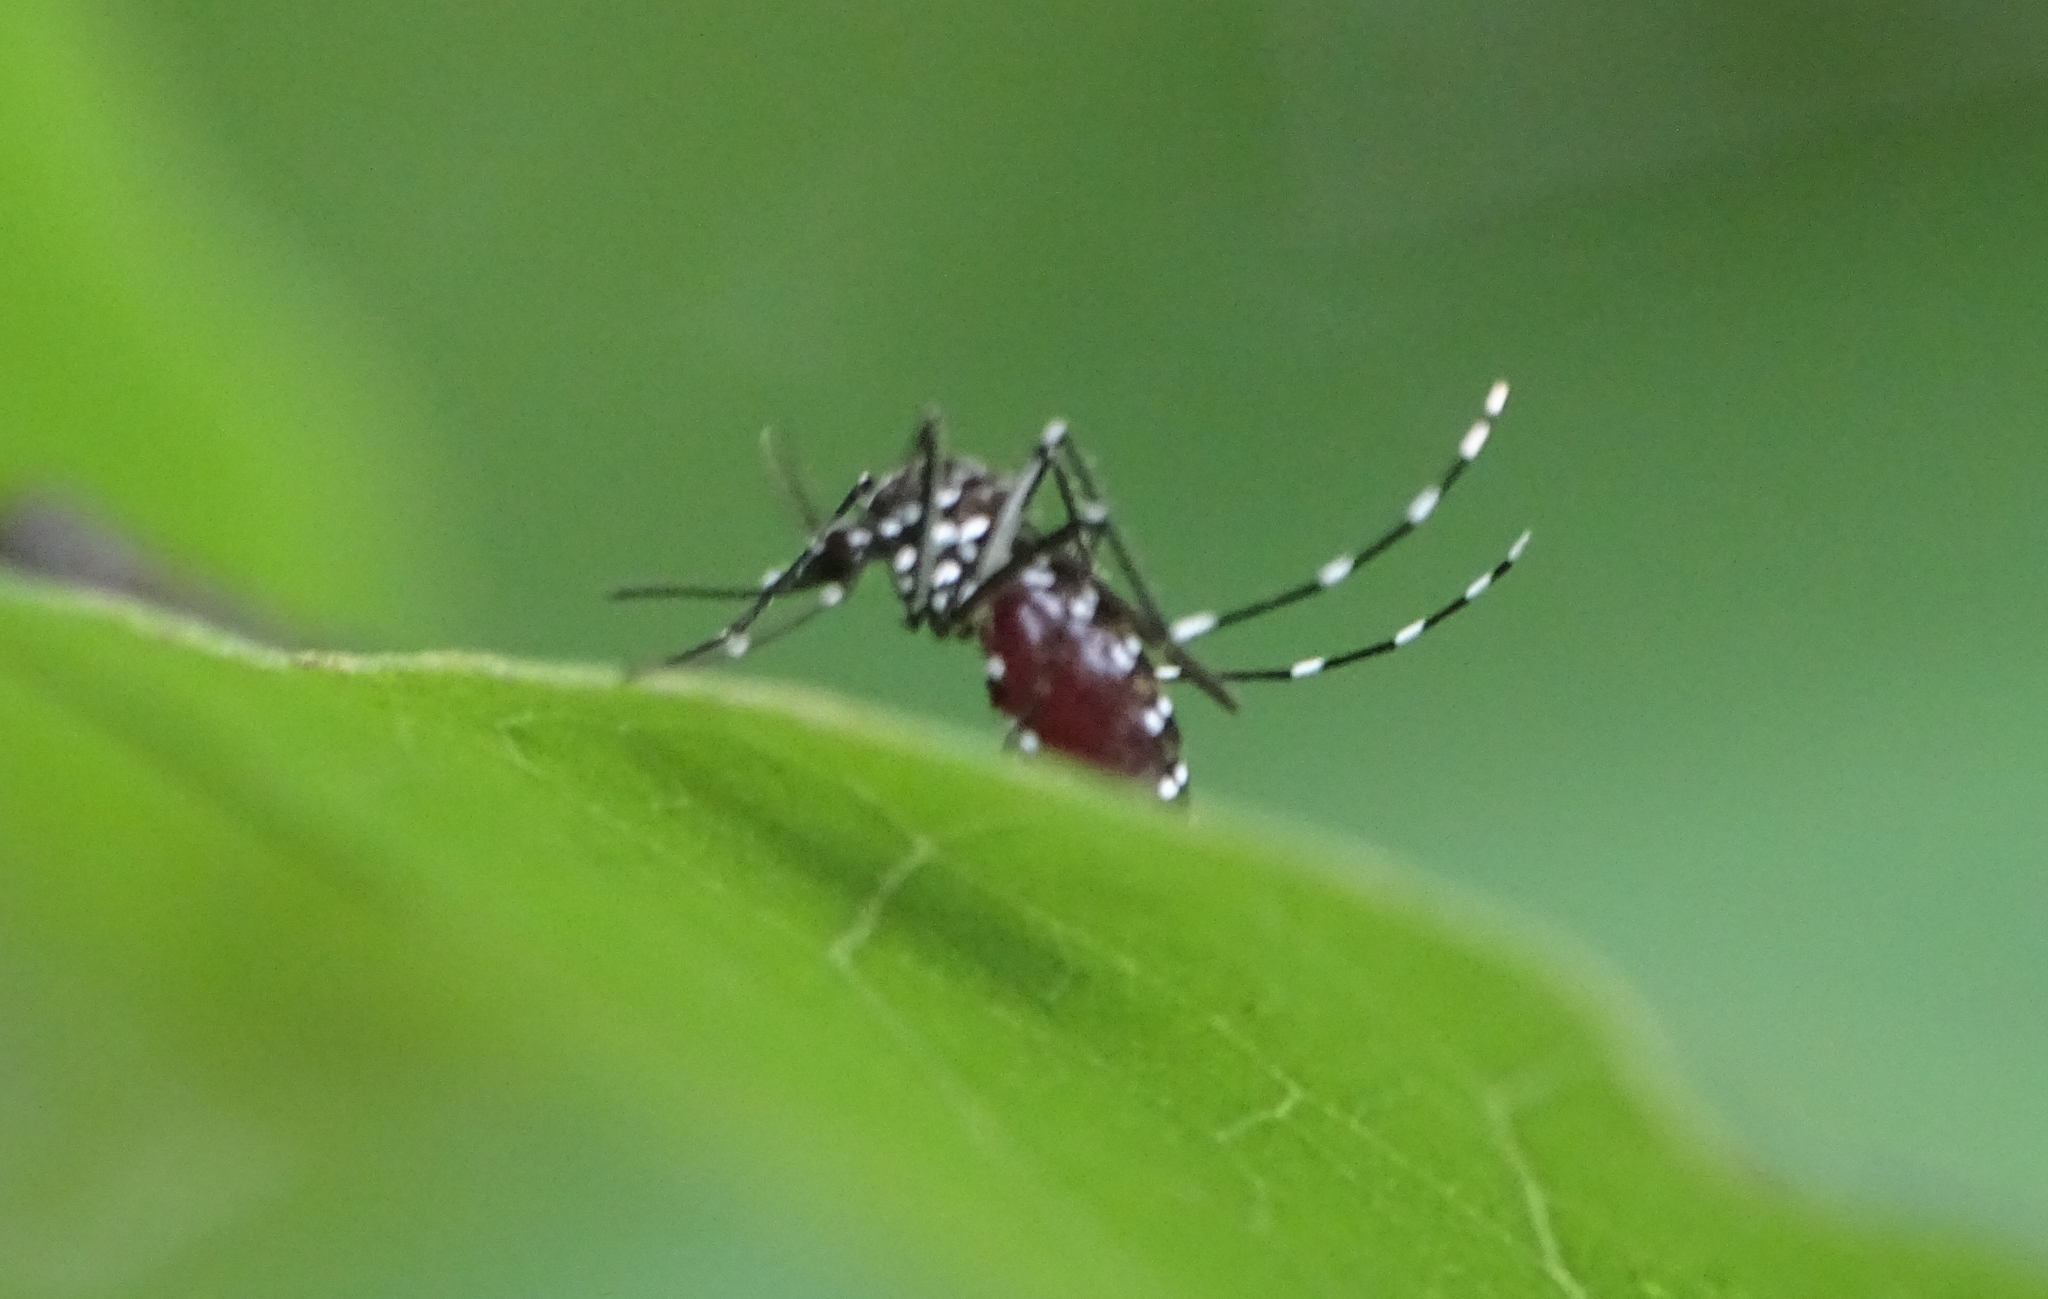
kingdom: Animalia
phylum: Arthropoda
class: Insecta
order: Diptera
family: Culicidae
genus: Aedes
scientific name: Aedes albopictus
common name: Tiger mosquito
